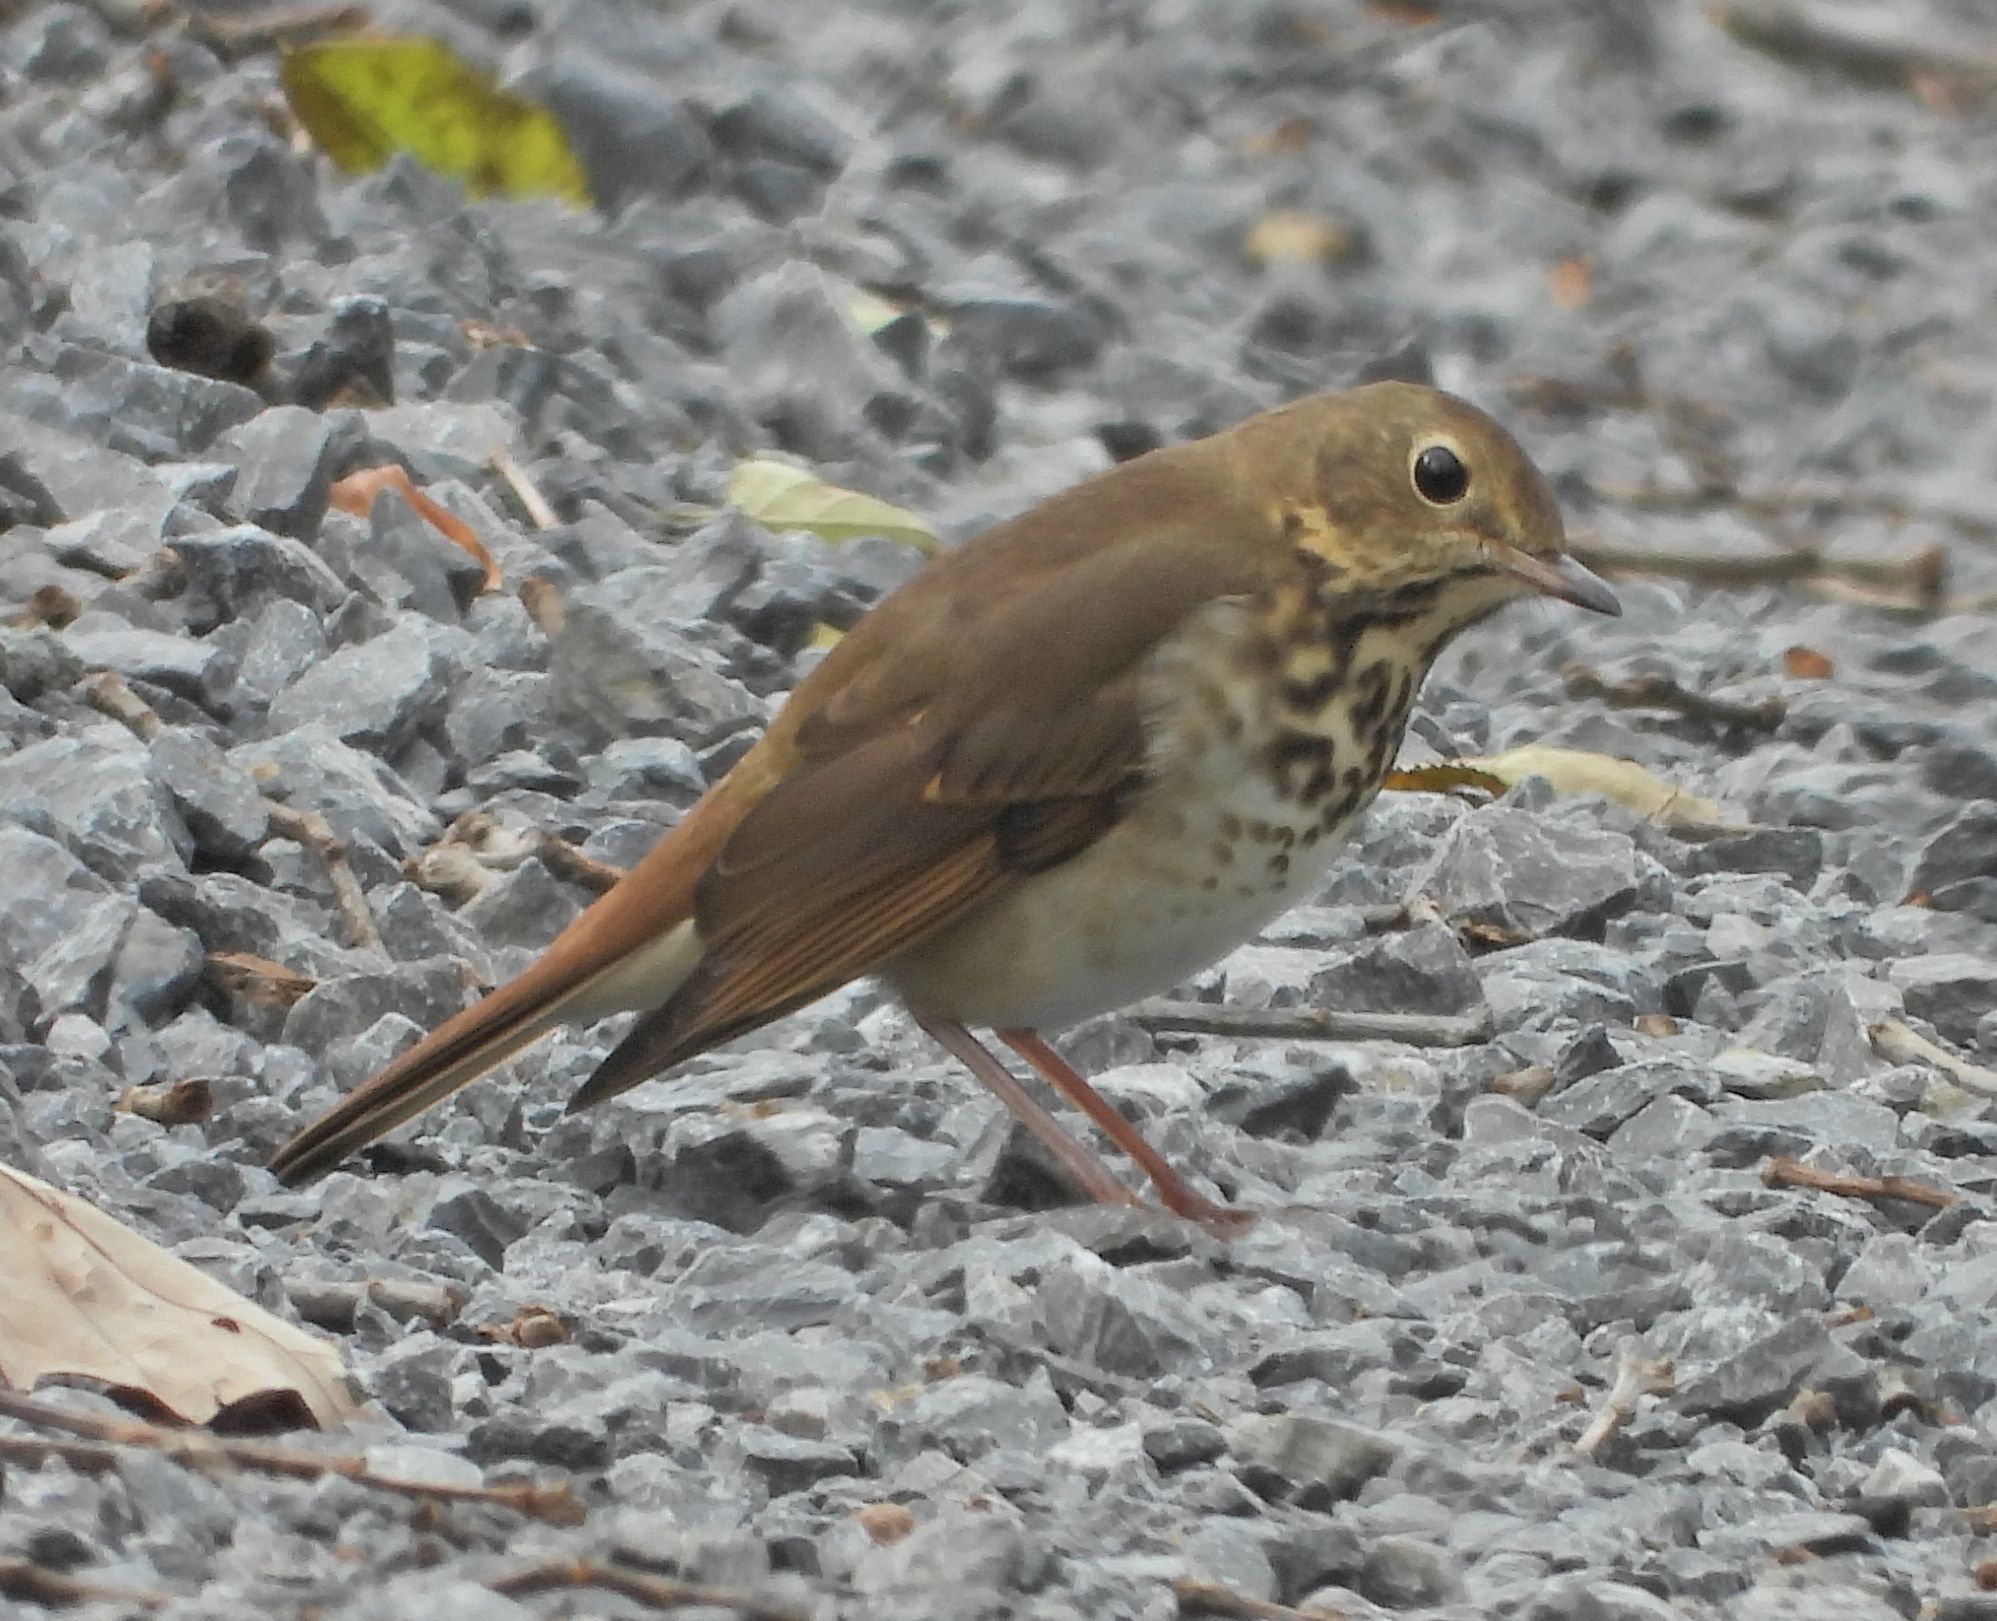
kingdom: Animalia
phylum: Chordata
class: Aves
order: Passeriformes
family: Turdidae
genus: Catharus
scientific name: Catharus guttatus
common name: Hermit thrush
